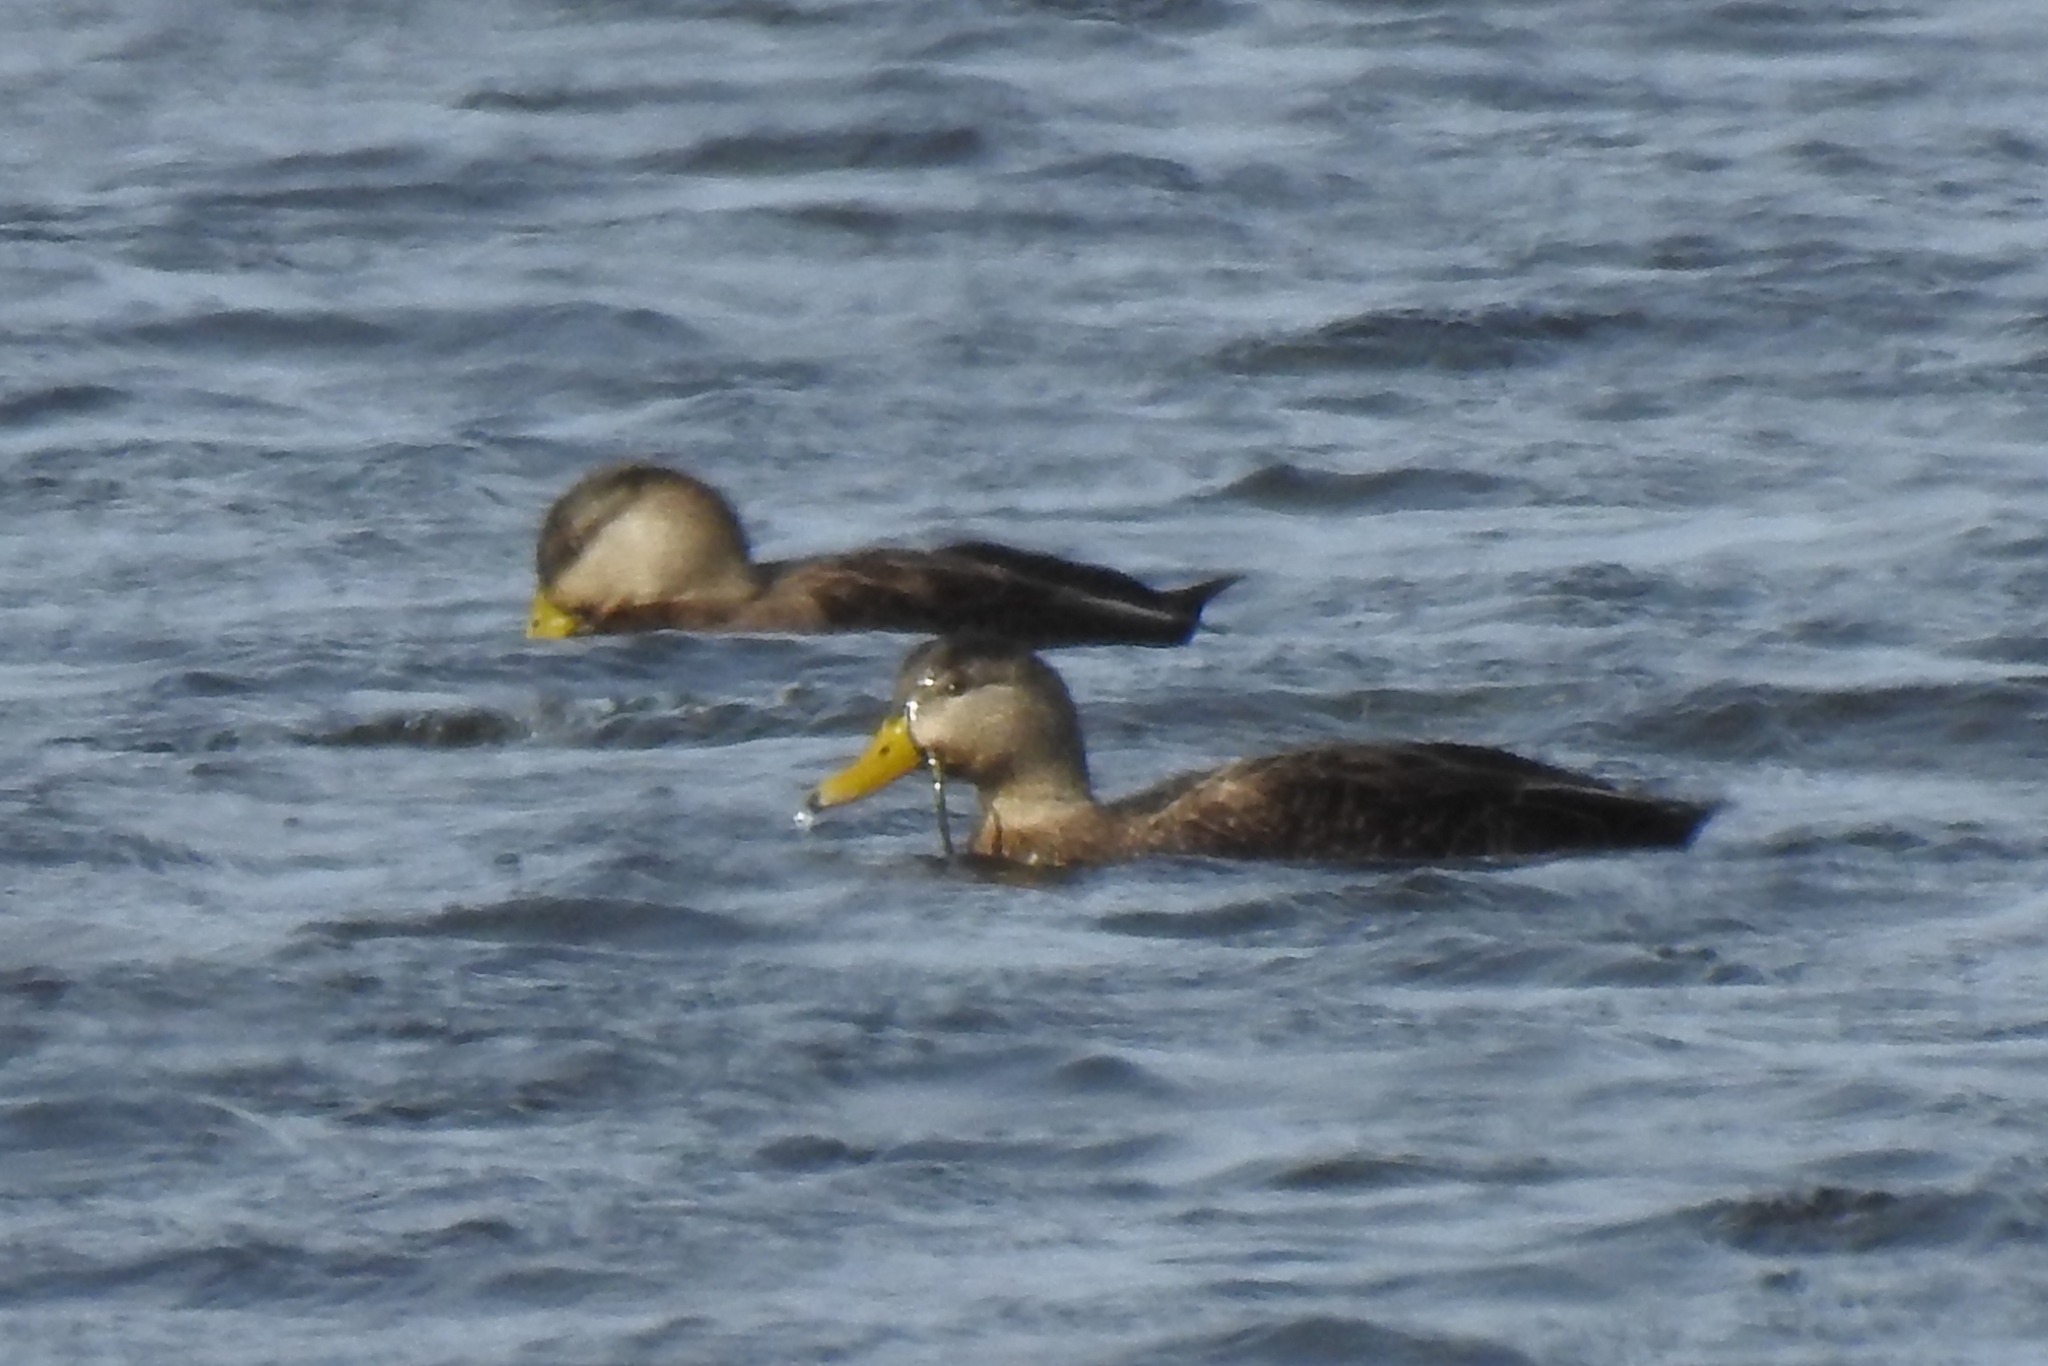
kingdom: Animalia
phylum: Chordata
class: Aves
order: Anseriformes
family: Anatidae
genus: Anas
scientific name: Anas rubripes
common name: American black duck
